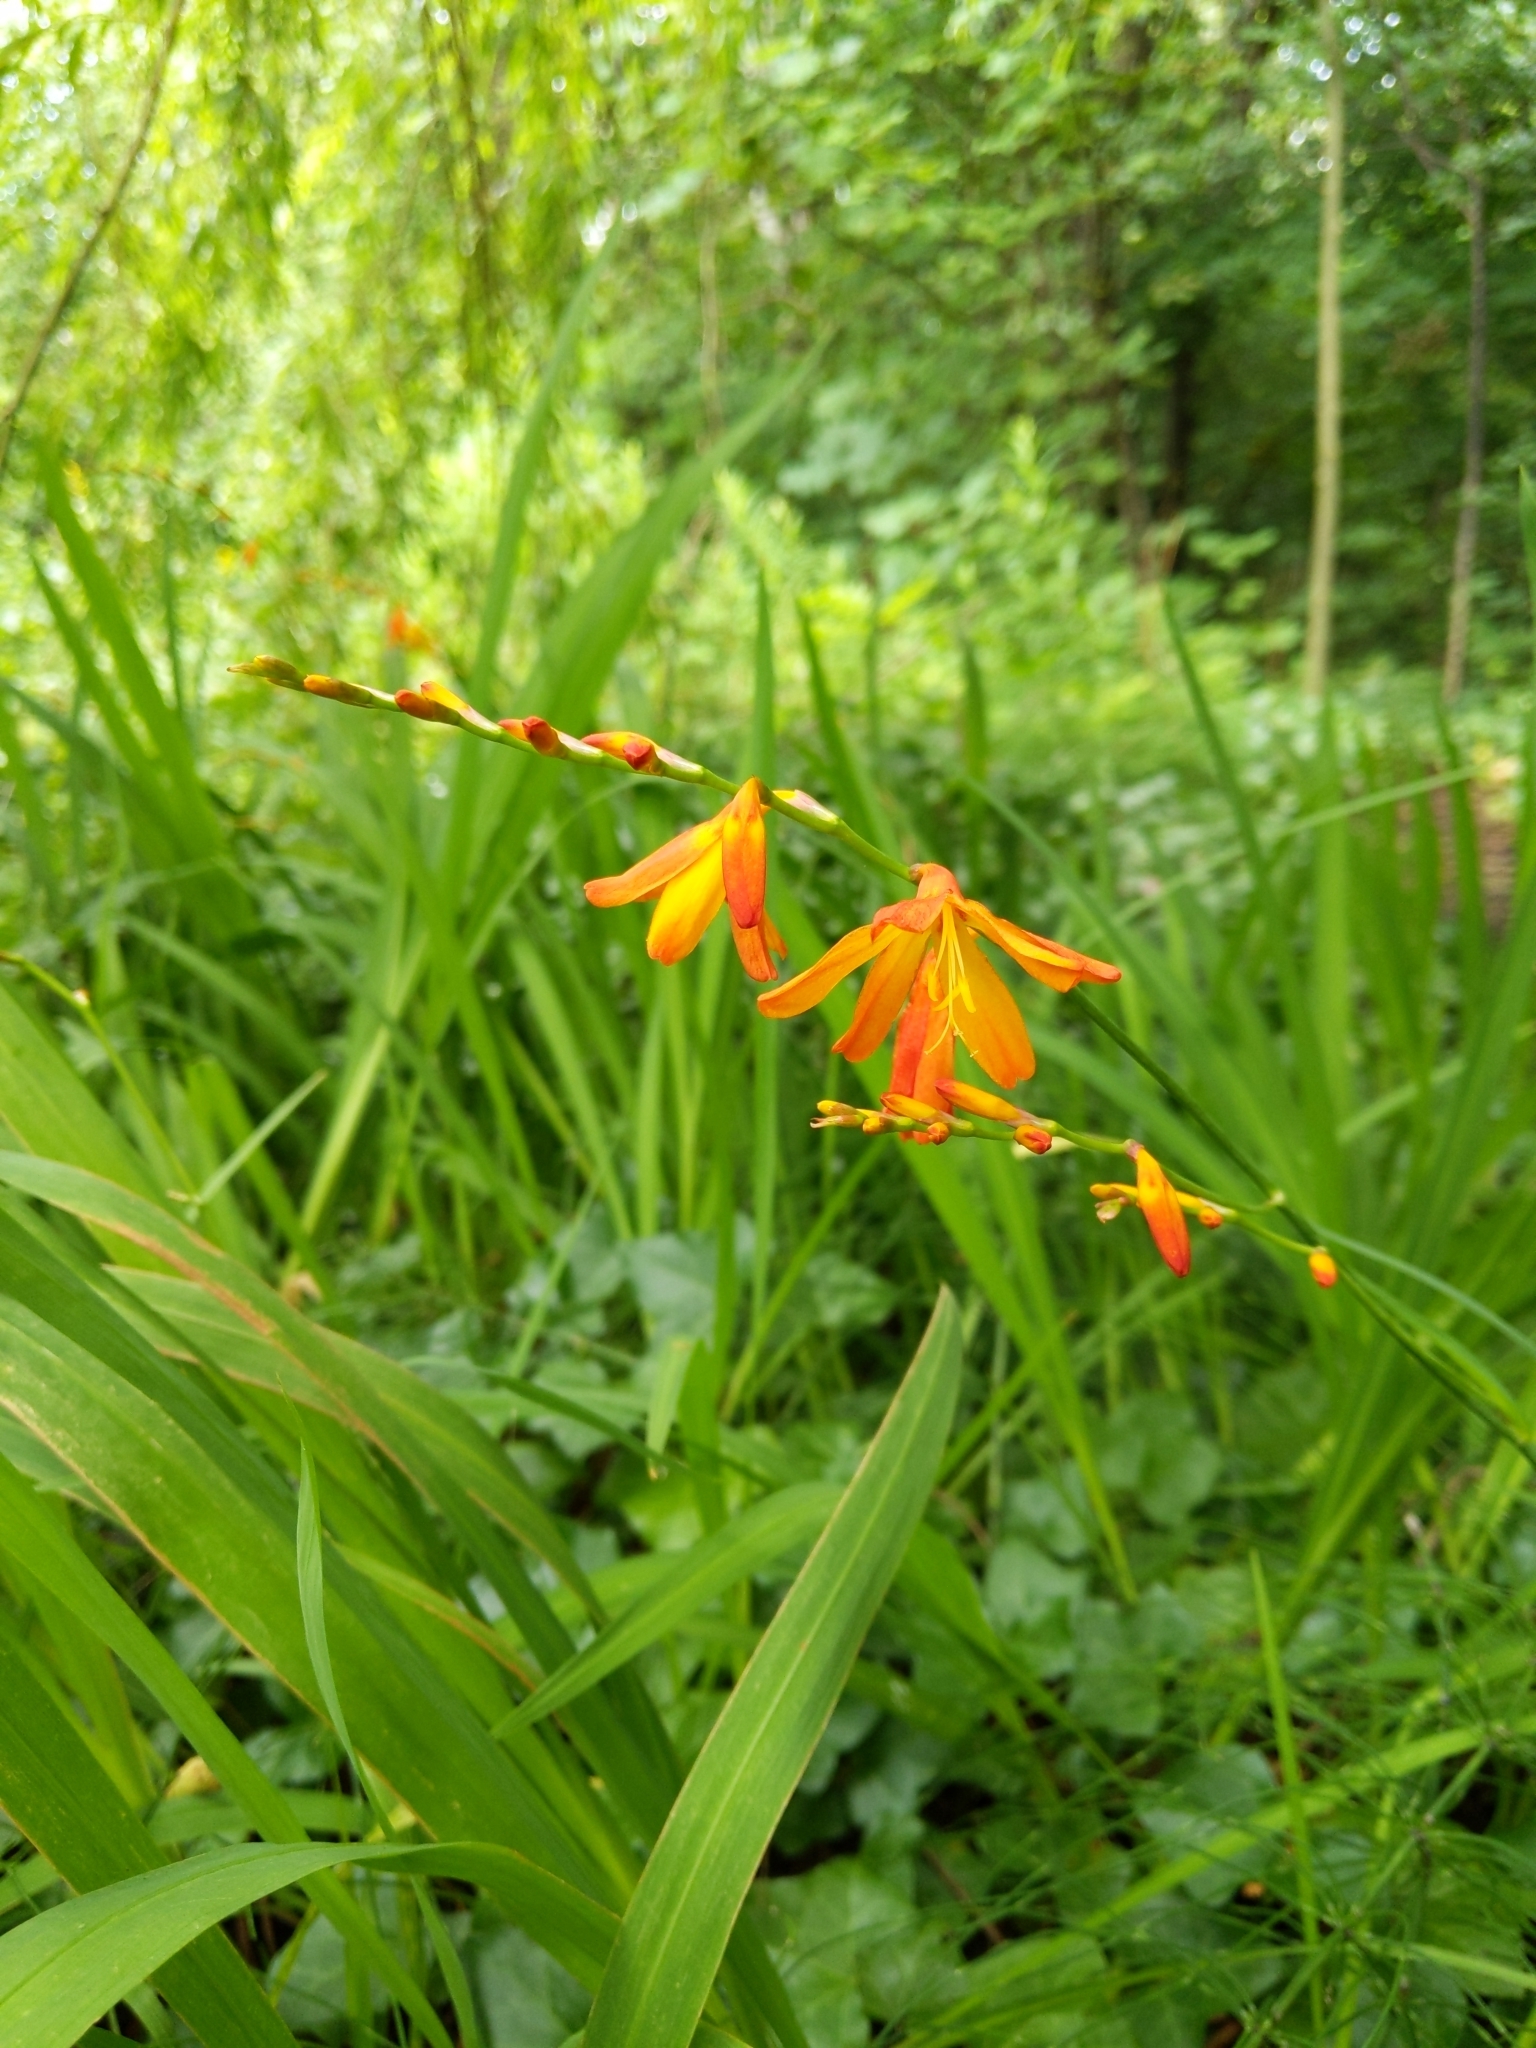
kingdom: Plantae
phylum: Tracheophyta
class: Liliopsida
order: Asparagales
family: Iridaceae
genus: Crocosmia
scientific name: Crocosmia crocosmiiflora
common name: Montbretia
